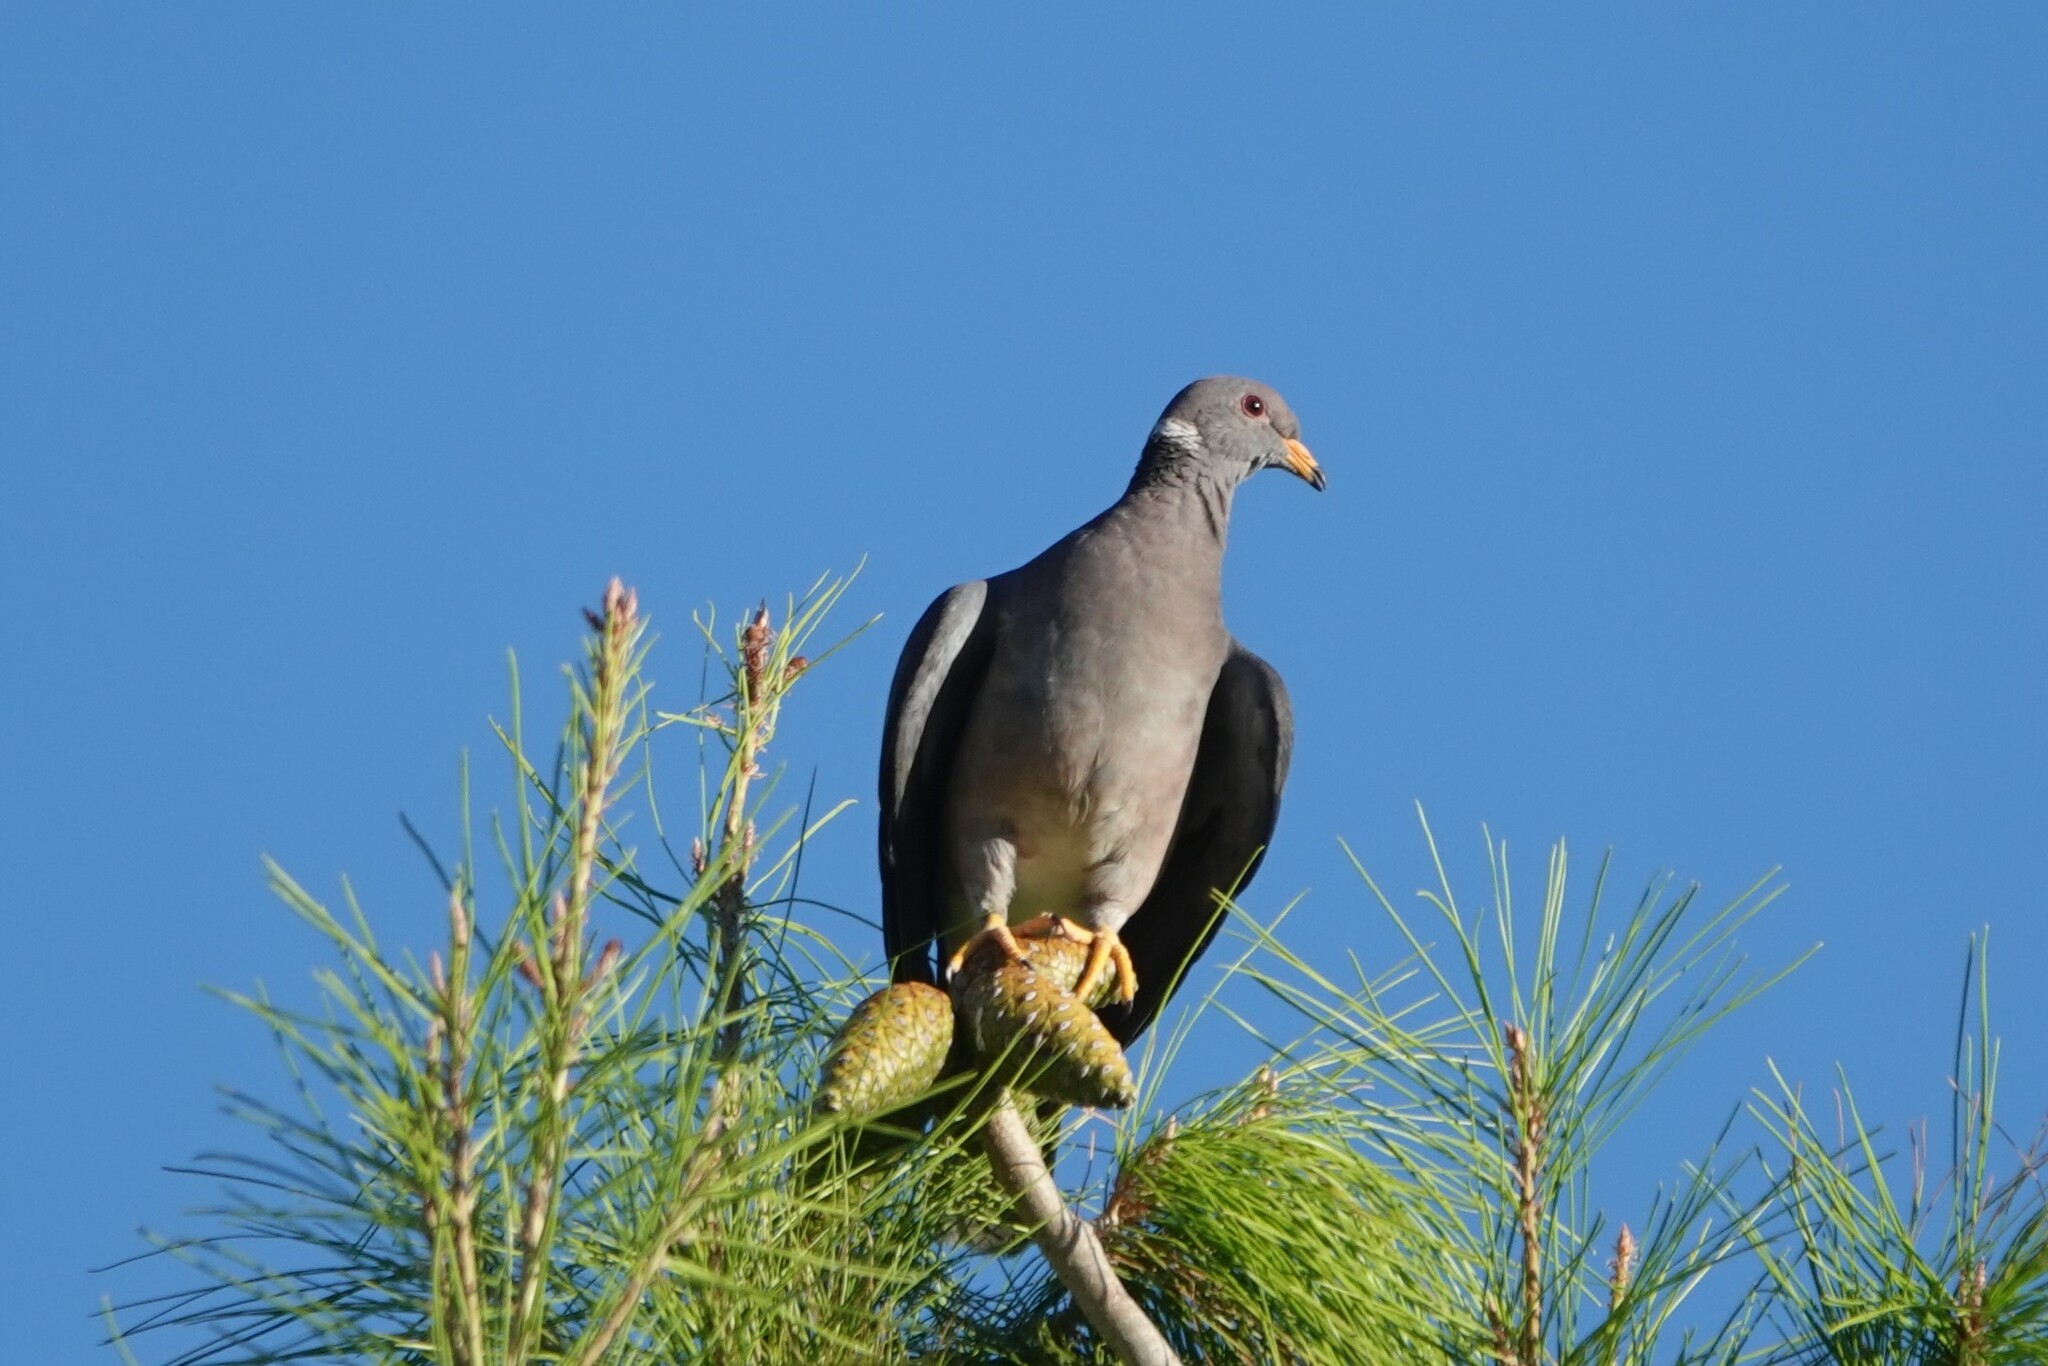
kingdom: Animalia
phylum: Chordata
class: Aves
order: Columbiformes
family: Columbidae
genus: Patagioenas
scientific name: Patagioenas fasciata
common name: Band-tailed pigeon
